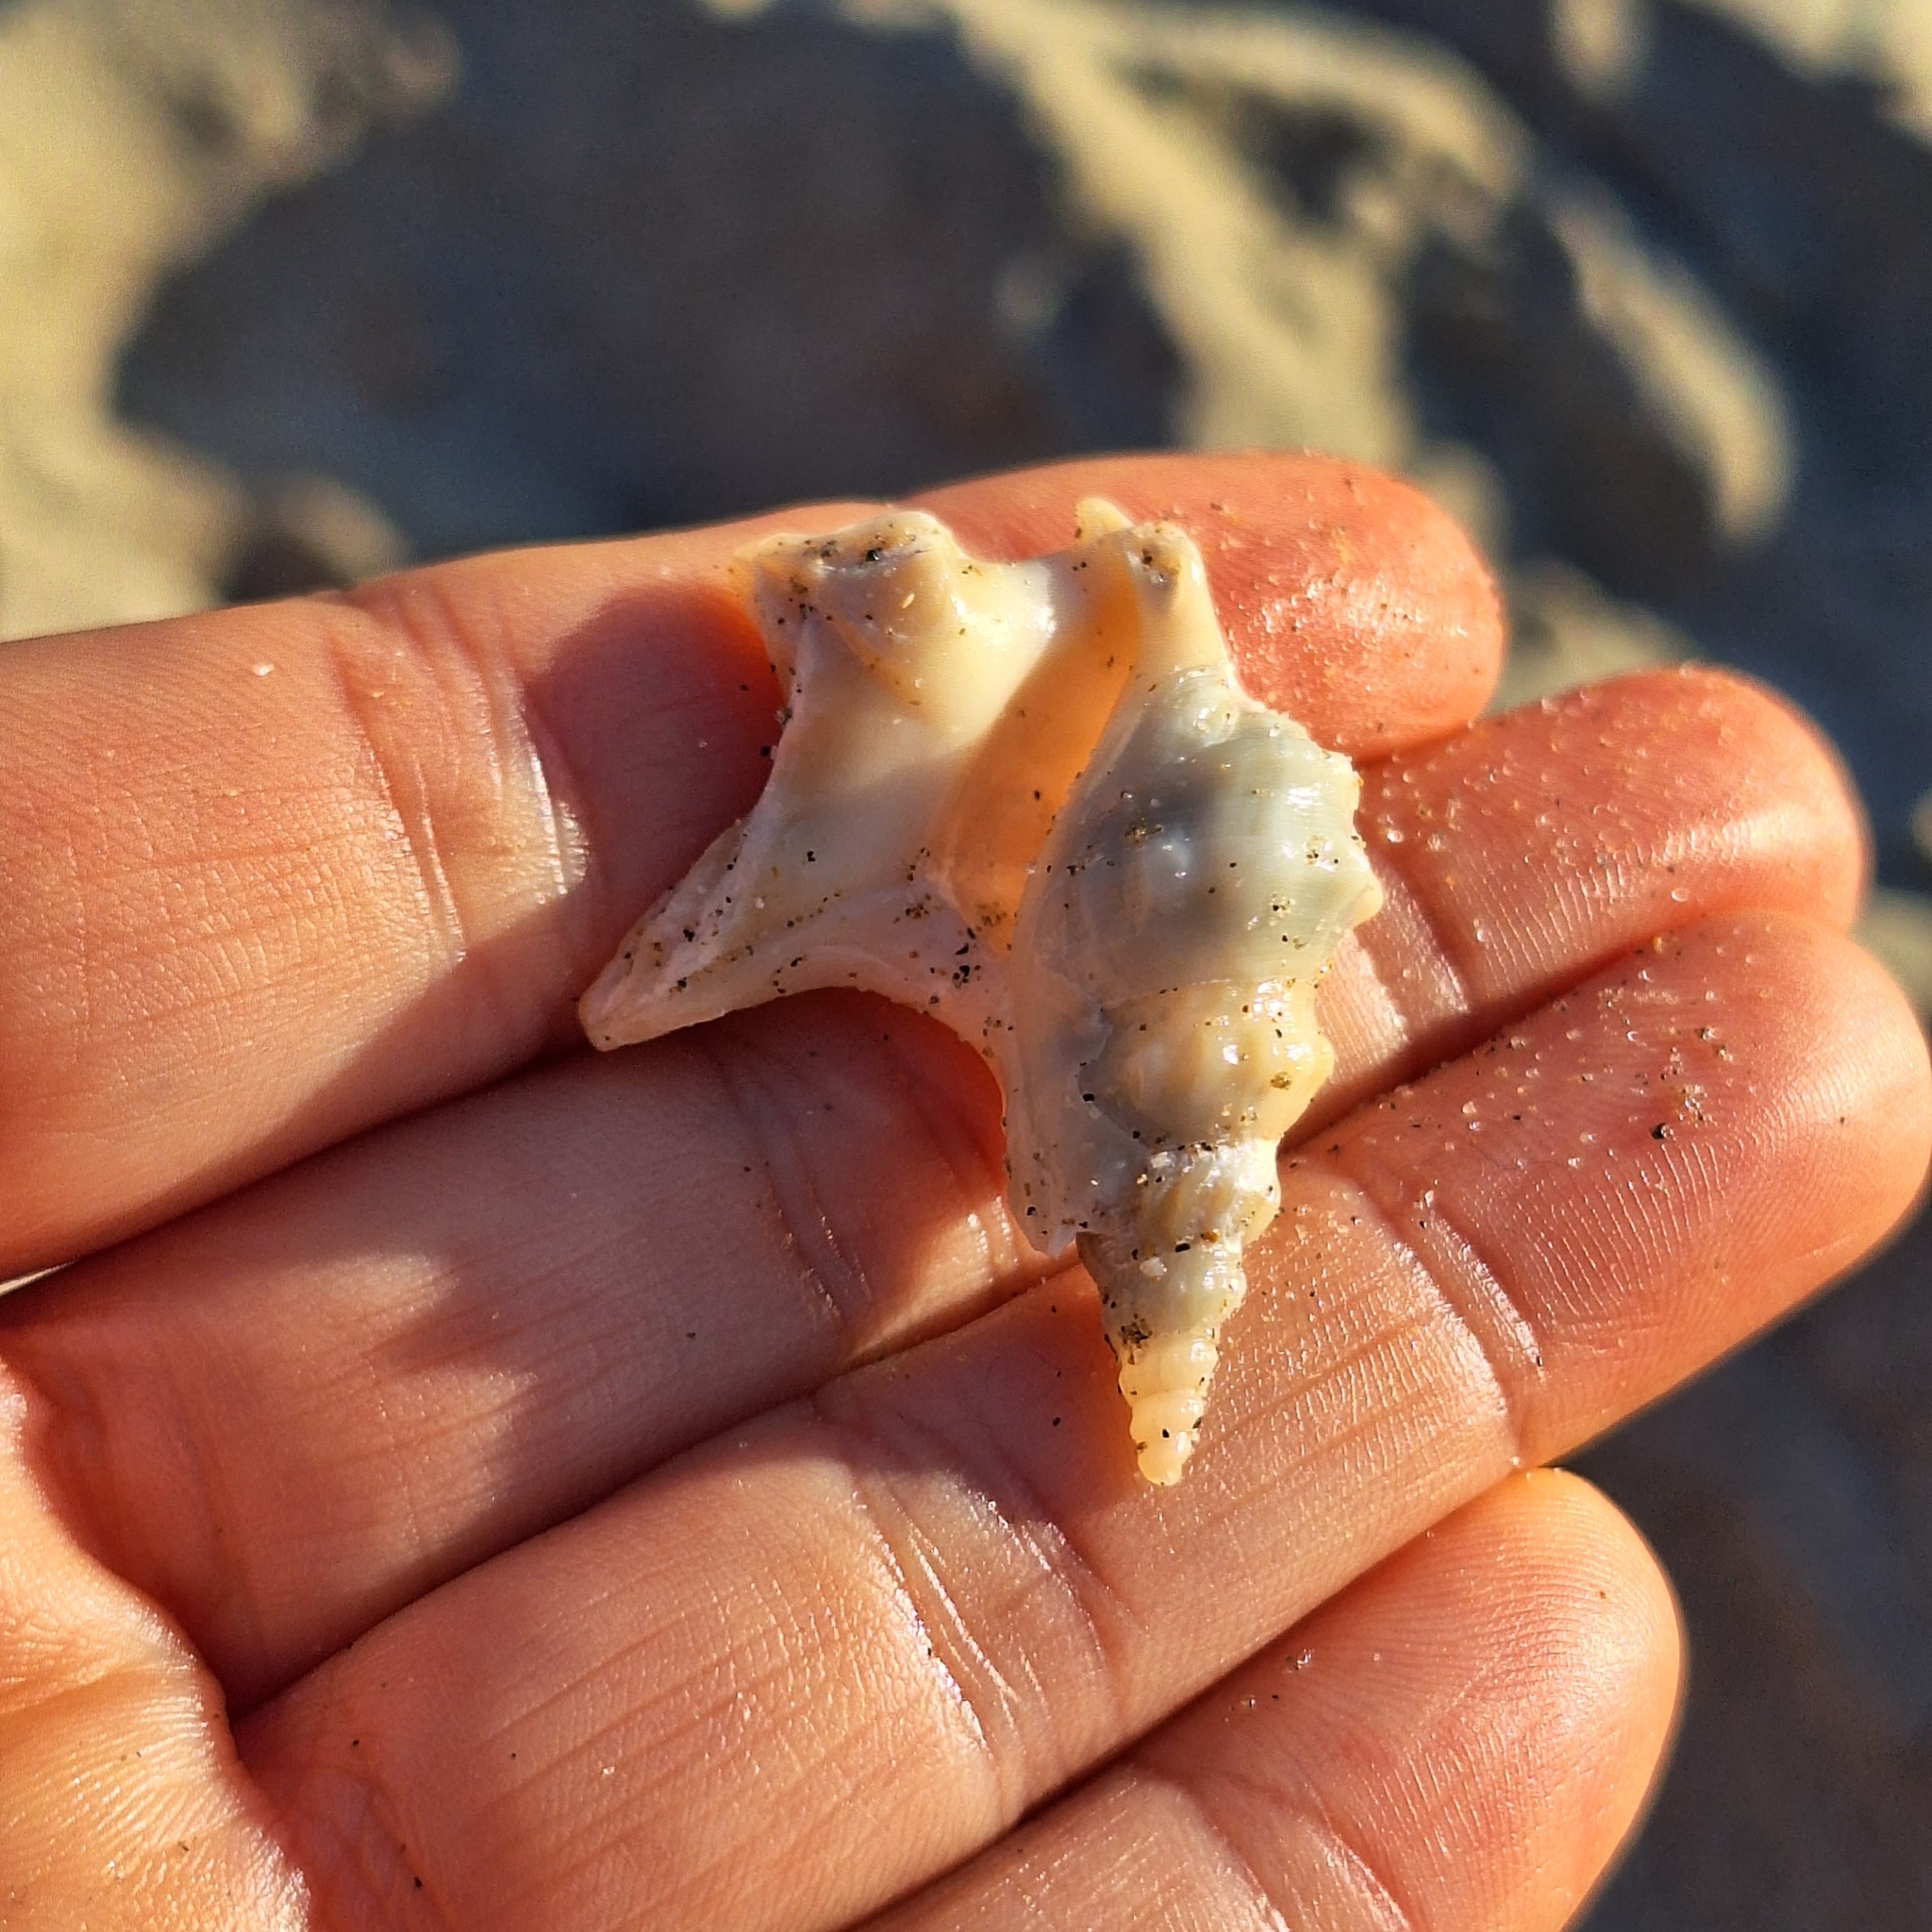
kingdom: Animalia
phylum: Mollusca
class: Gastropoda
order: Littorinimorpha
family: Aporrhaidae
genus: Aporrhais
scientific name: Aporrhais pespelecani
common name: Common pelican’s foot
